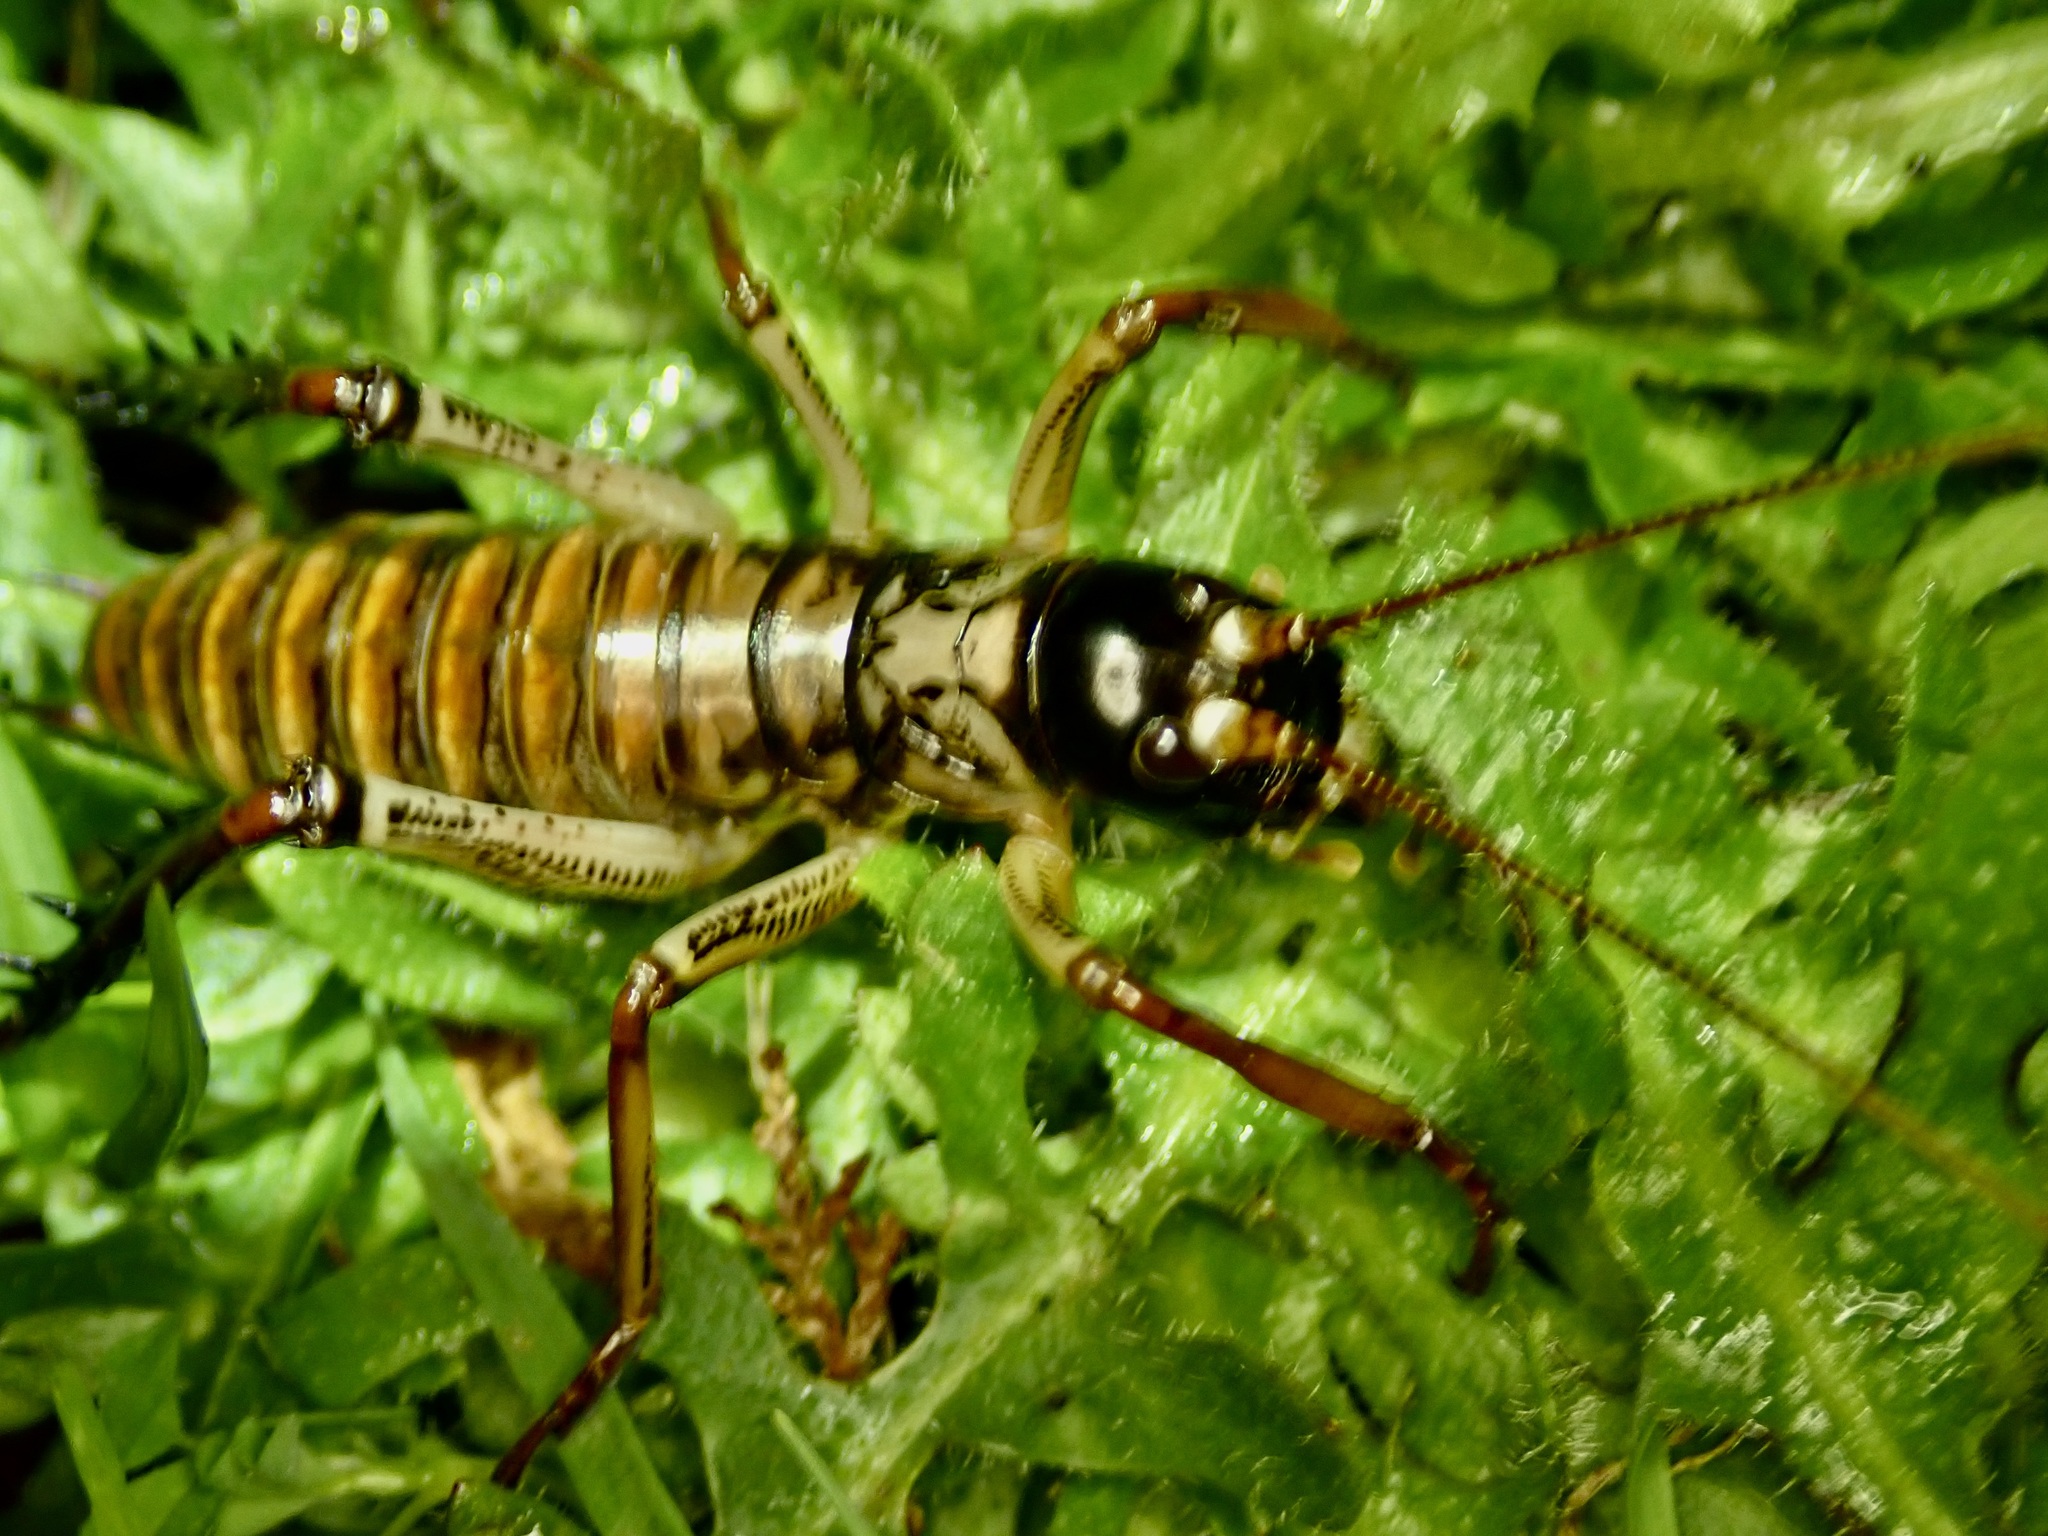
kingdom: Animalia
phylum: Arthropoda
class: Insecta
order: Orthoptera
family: Anostostomatidae
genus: Hemideina
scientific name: Hemideina thoracica
